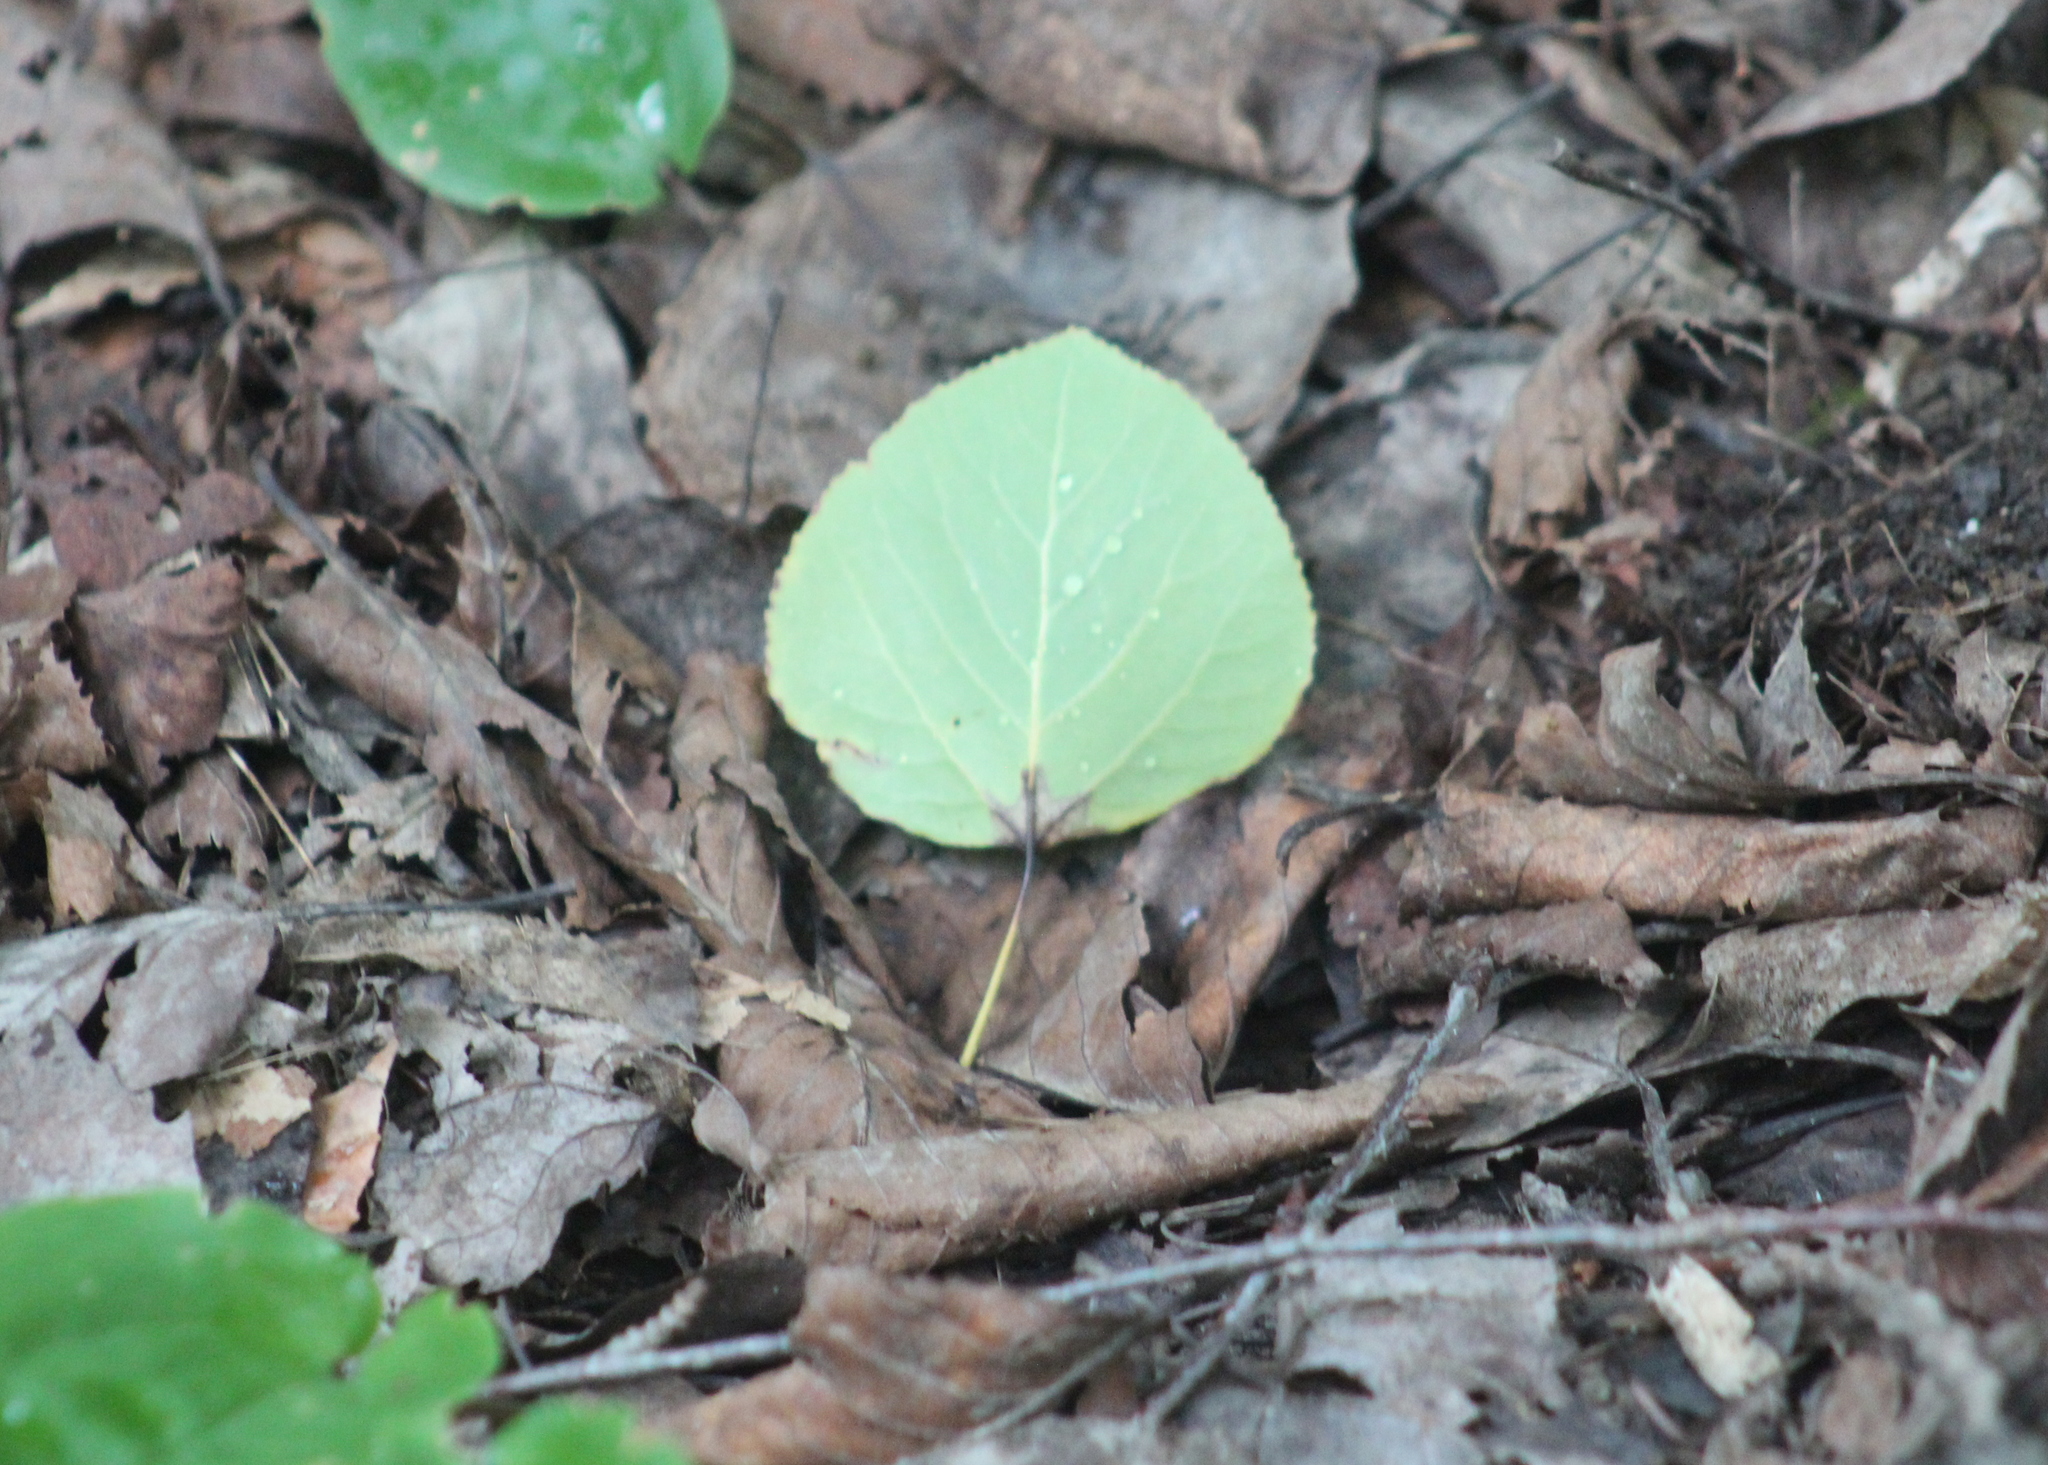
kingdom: Plantae
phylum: Tracheophyta
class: Magnoliopsida
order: Malpighiales
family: Salicaceae
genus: Populus
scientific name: Populus tremuloides
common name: Quaking aspen
